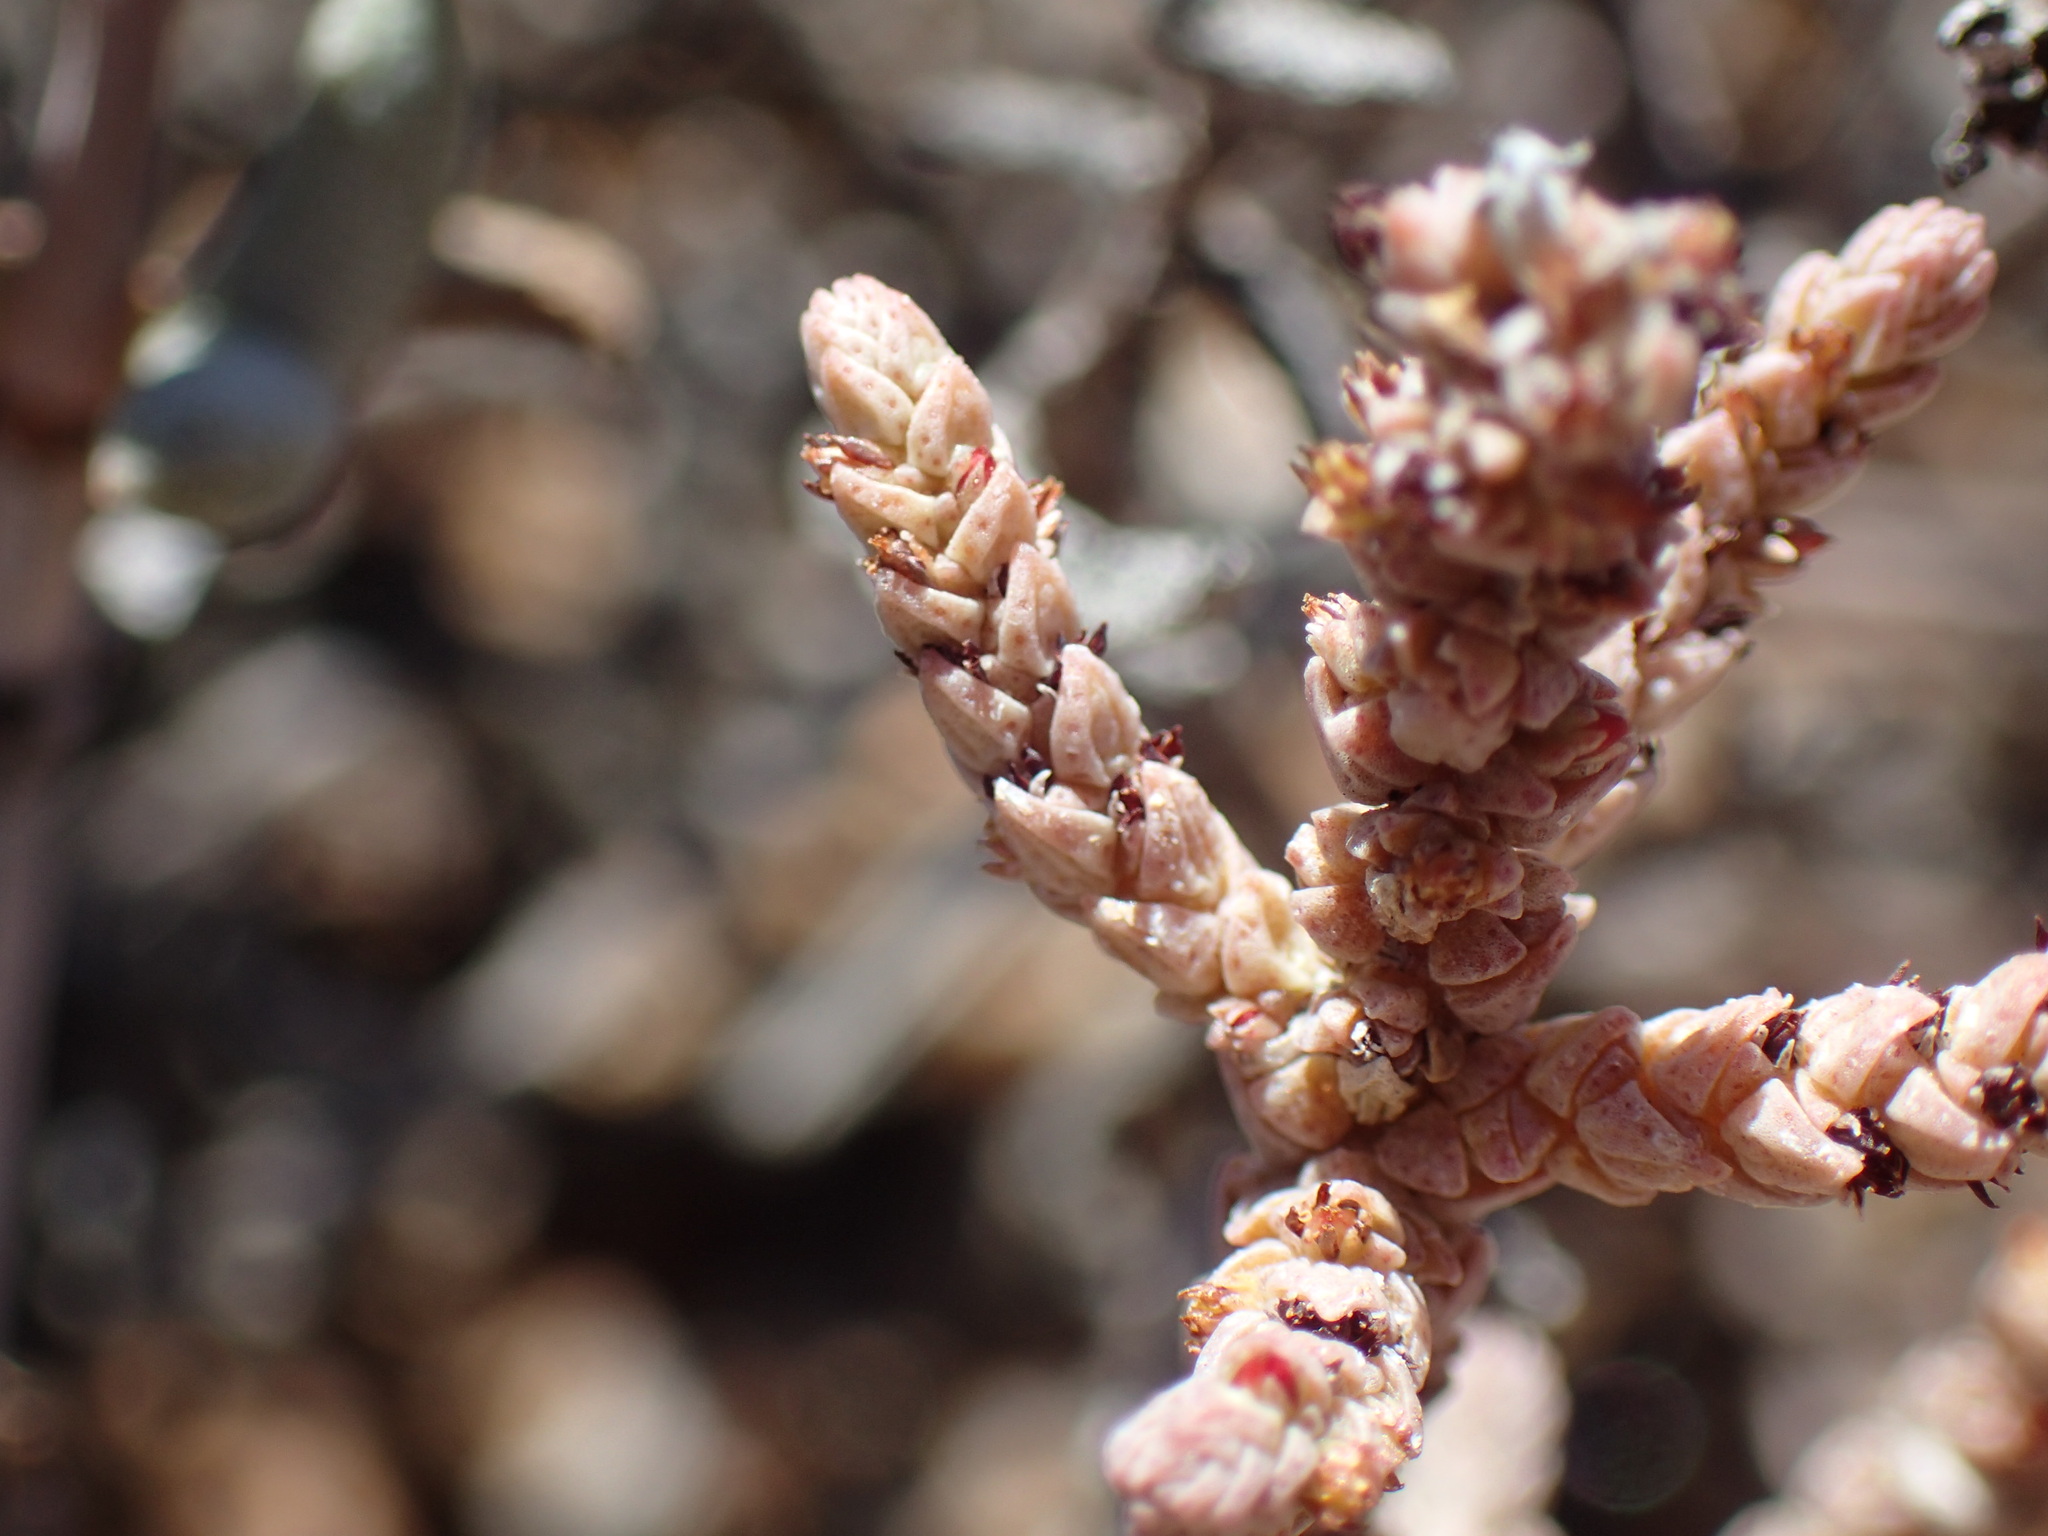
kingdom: Plantae
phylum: Tracheophyta
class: Magnoliopsida
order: Saxifragales
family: Crassulaceae
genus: Crassula
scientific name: Crassula muscosa
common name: Toy-cypress
